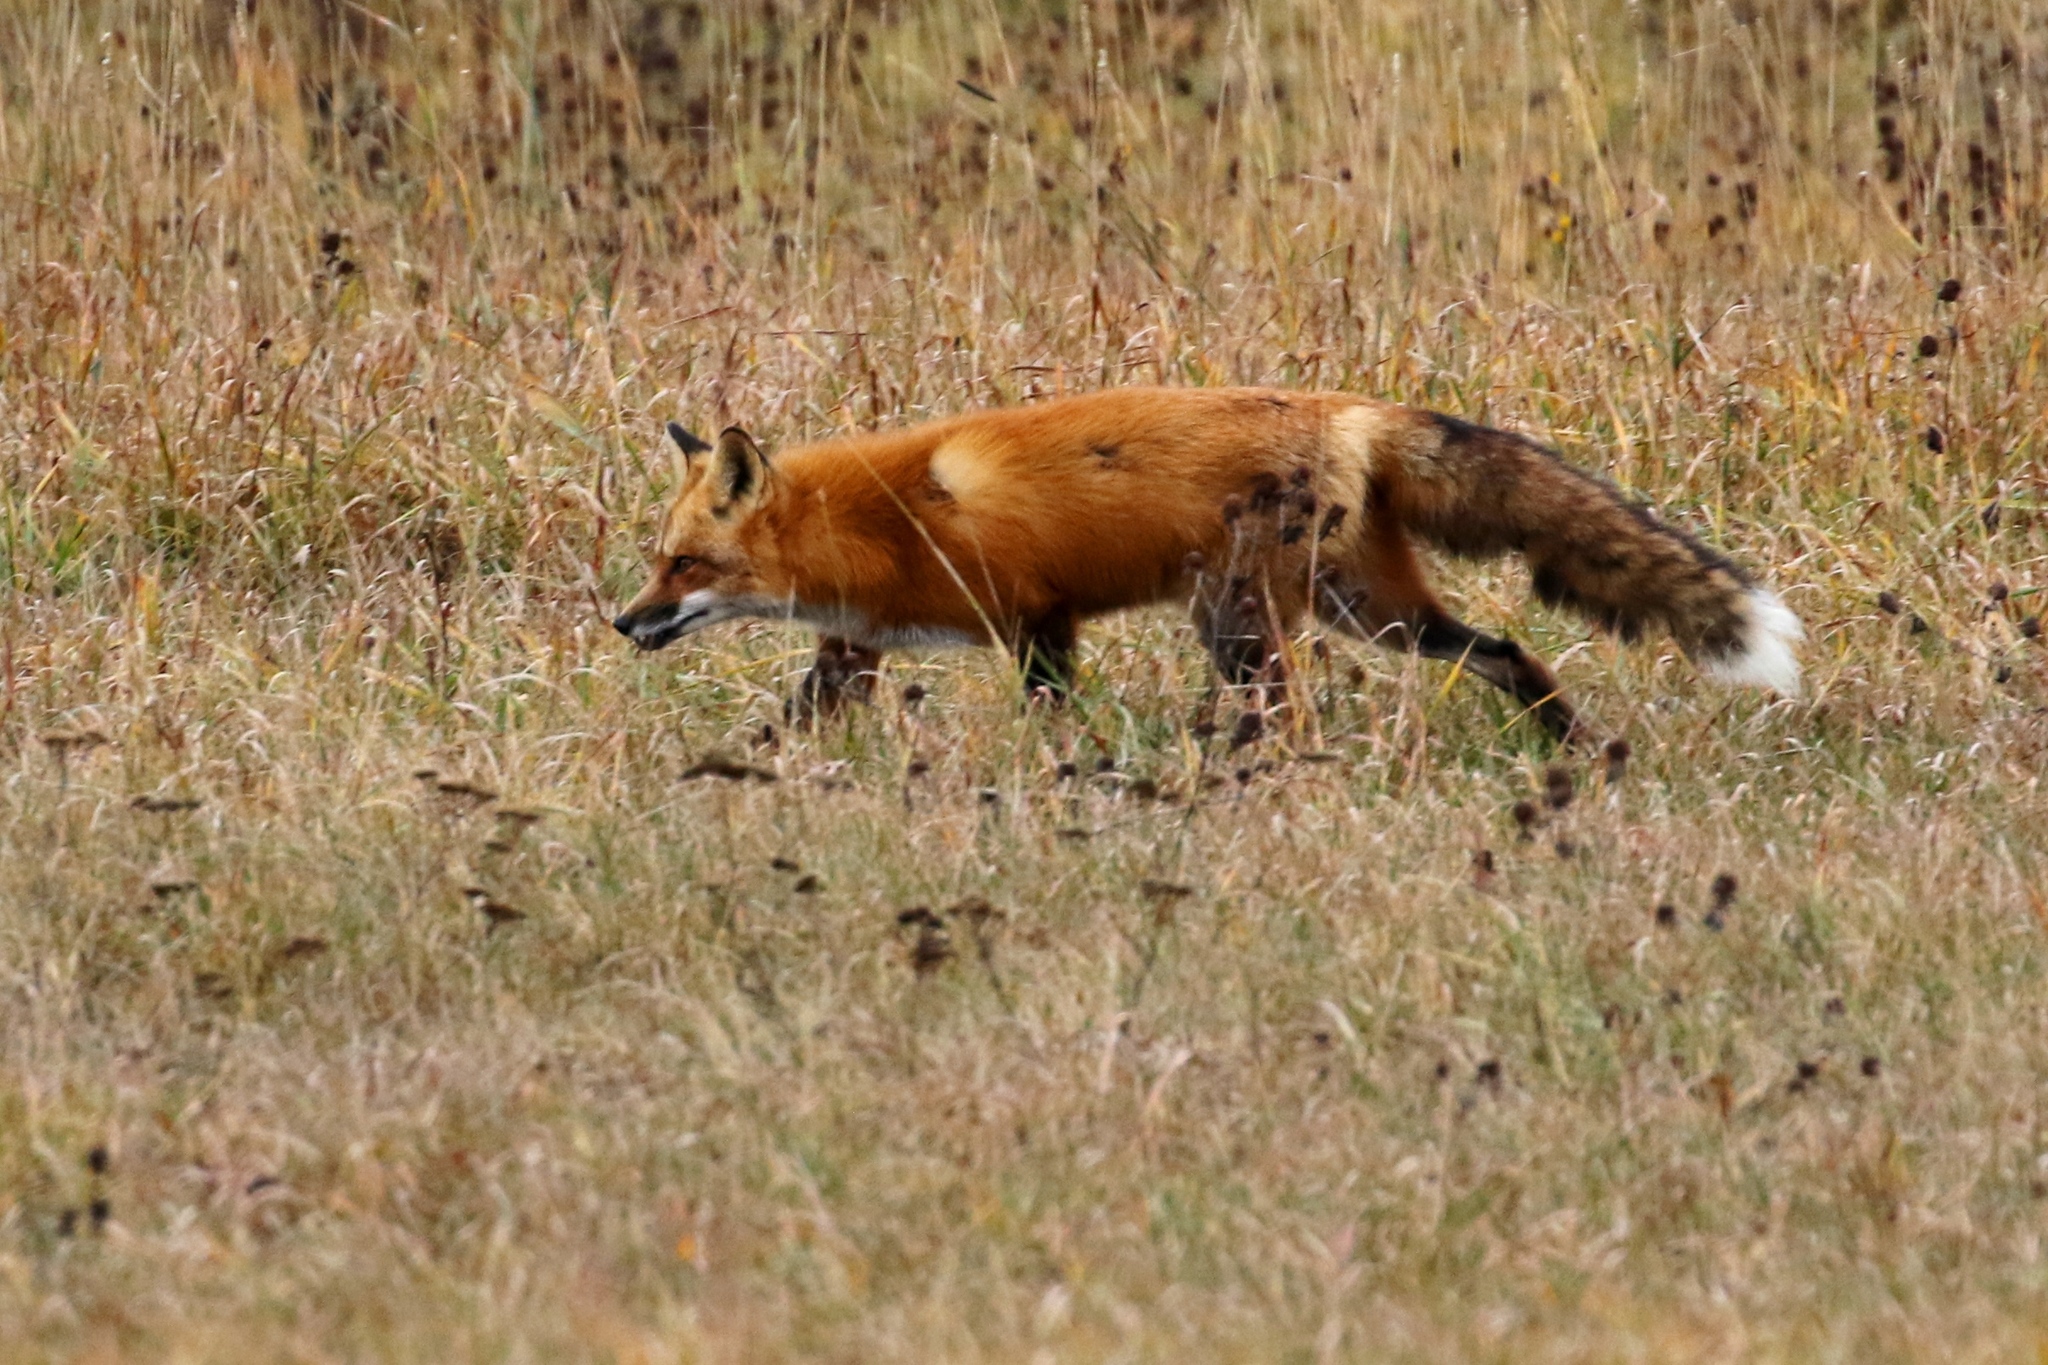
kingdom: Animalia
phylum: Chordata
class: Mammalia
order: Carnivora
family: Canidae
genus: Vulpes
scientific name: Vulpes vulpes
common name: Red fox
